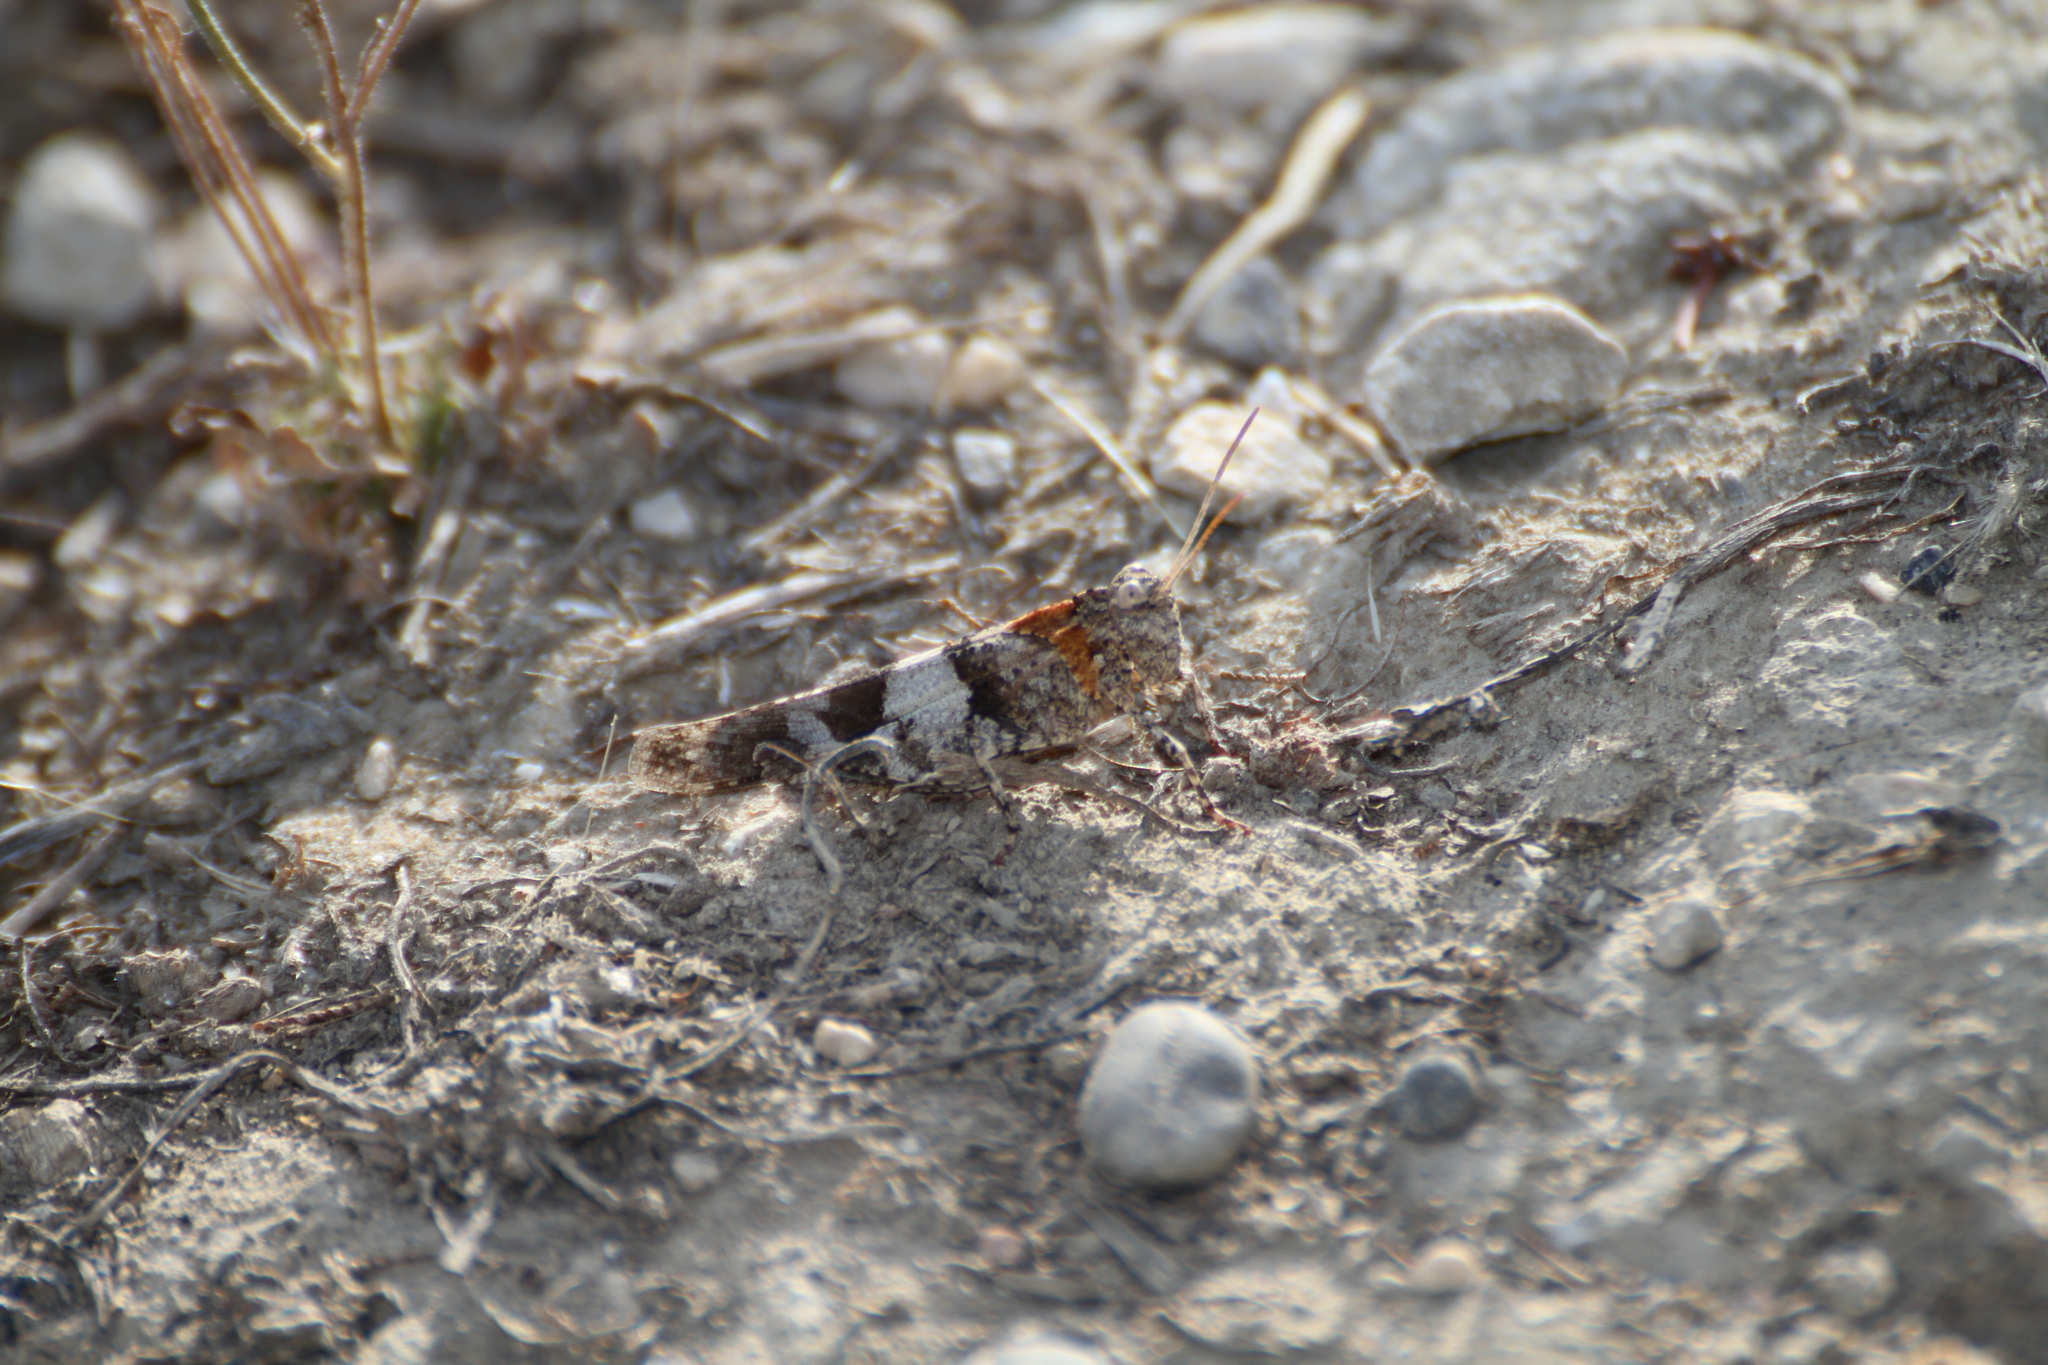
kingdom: Animalia
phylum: Arthropoda
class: Insecta
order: Orthoptera
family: Acrididae
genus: Oedipoda
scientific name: Oedipoda caerulescens
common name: Blue-winged grasshopper
